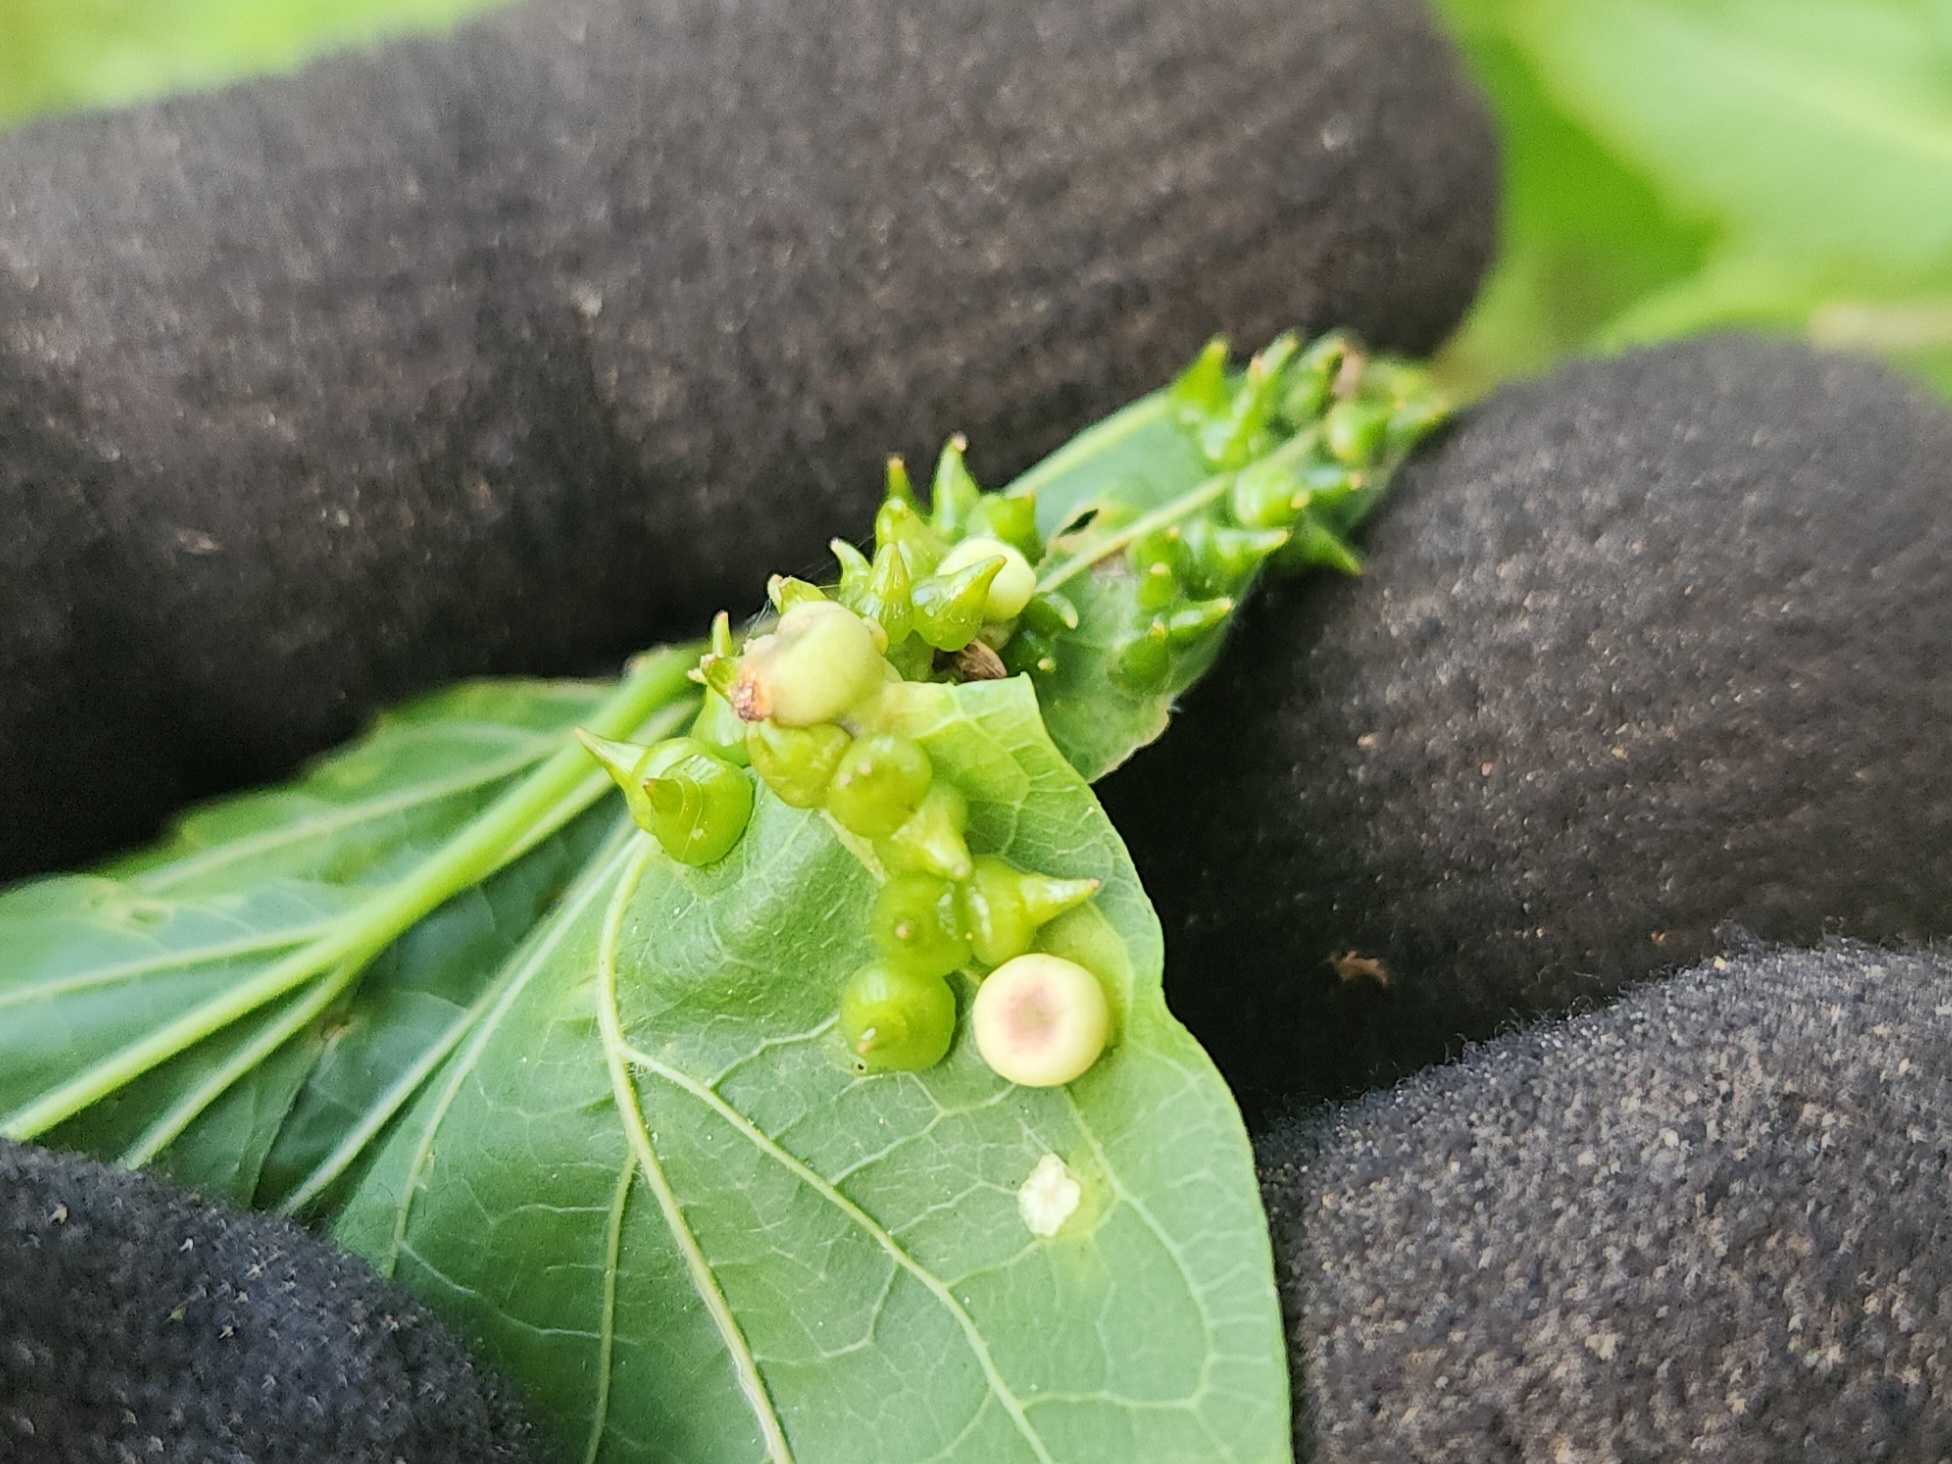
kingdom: Animalia
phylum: Arthropoda
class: Insecta
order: Diptera
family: Cecidomyiidae
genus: Celticecis
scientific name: Celticecis spiniformis
